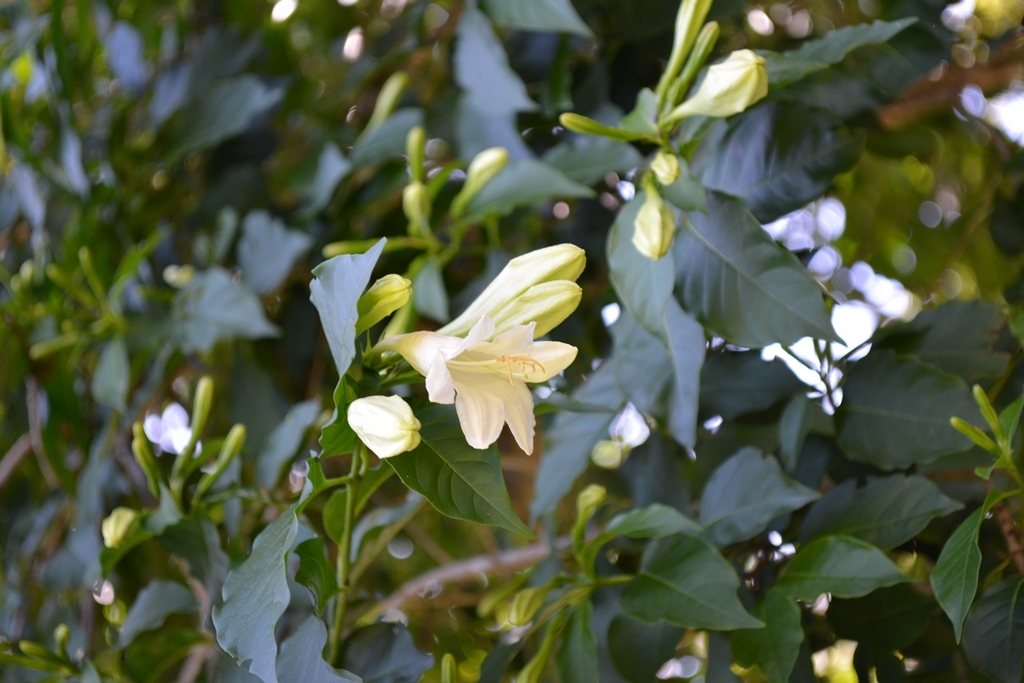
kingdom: Plantae
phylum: Tracheophyta
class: Magnoliopsida
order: Gentianales
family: Rubiaceae
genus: Hintonia
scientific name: Hintonia latiflora
